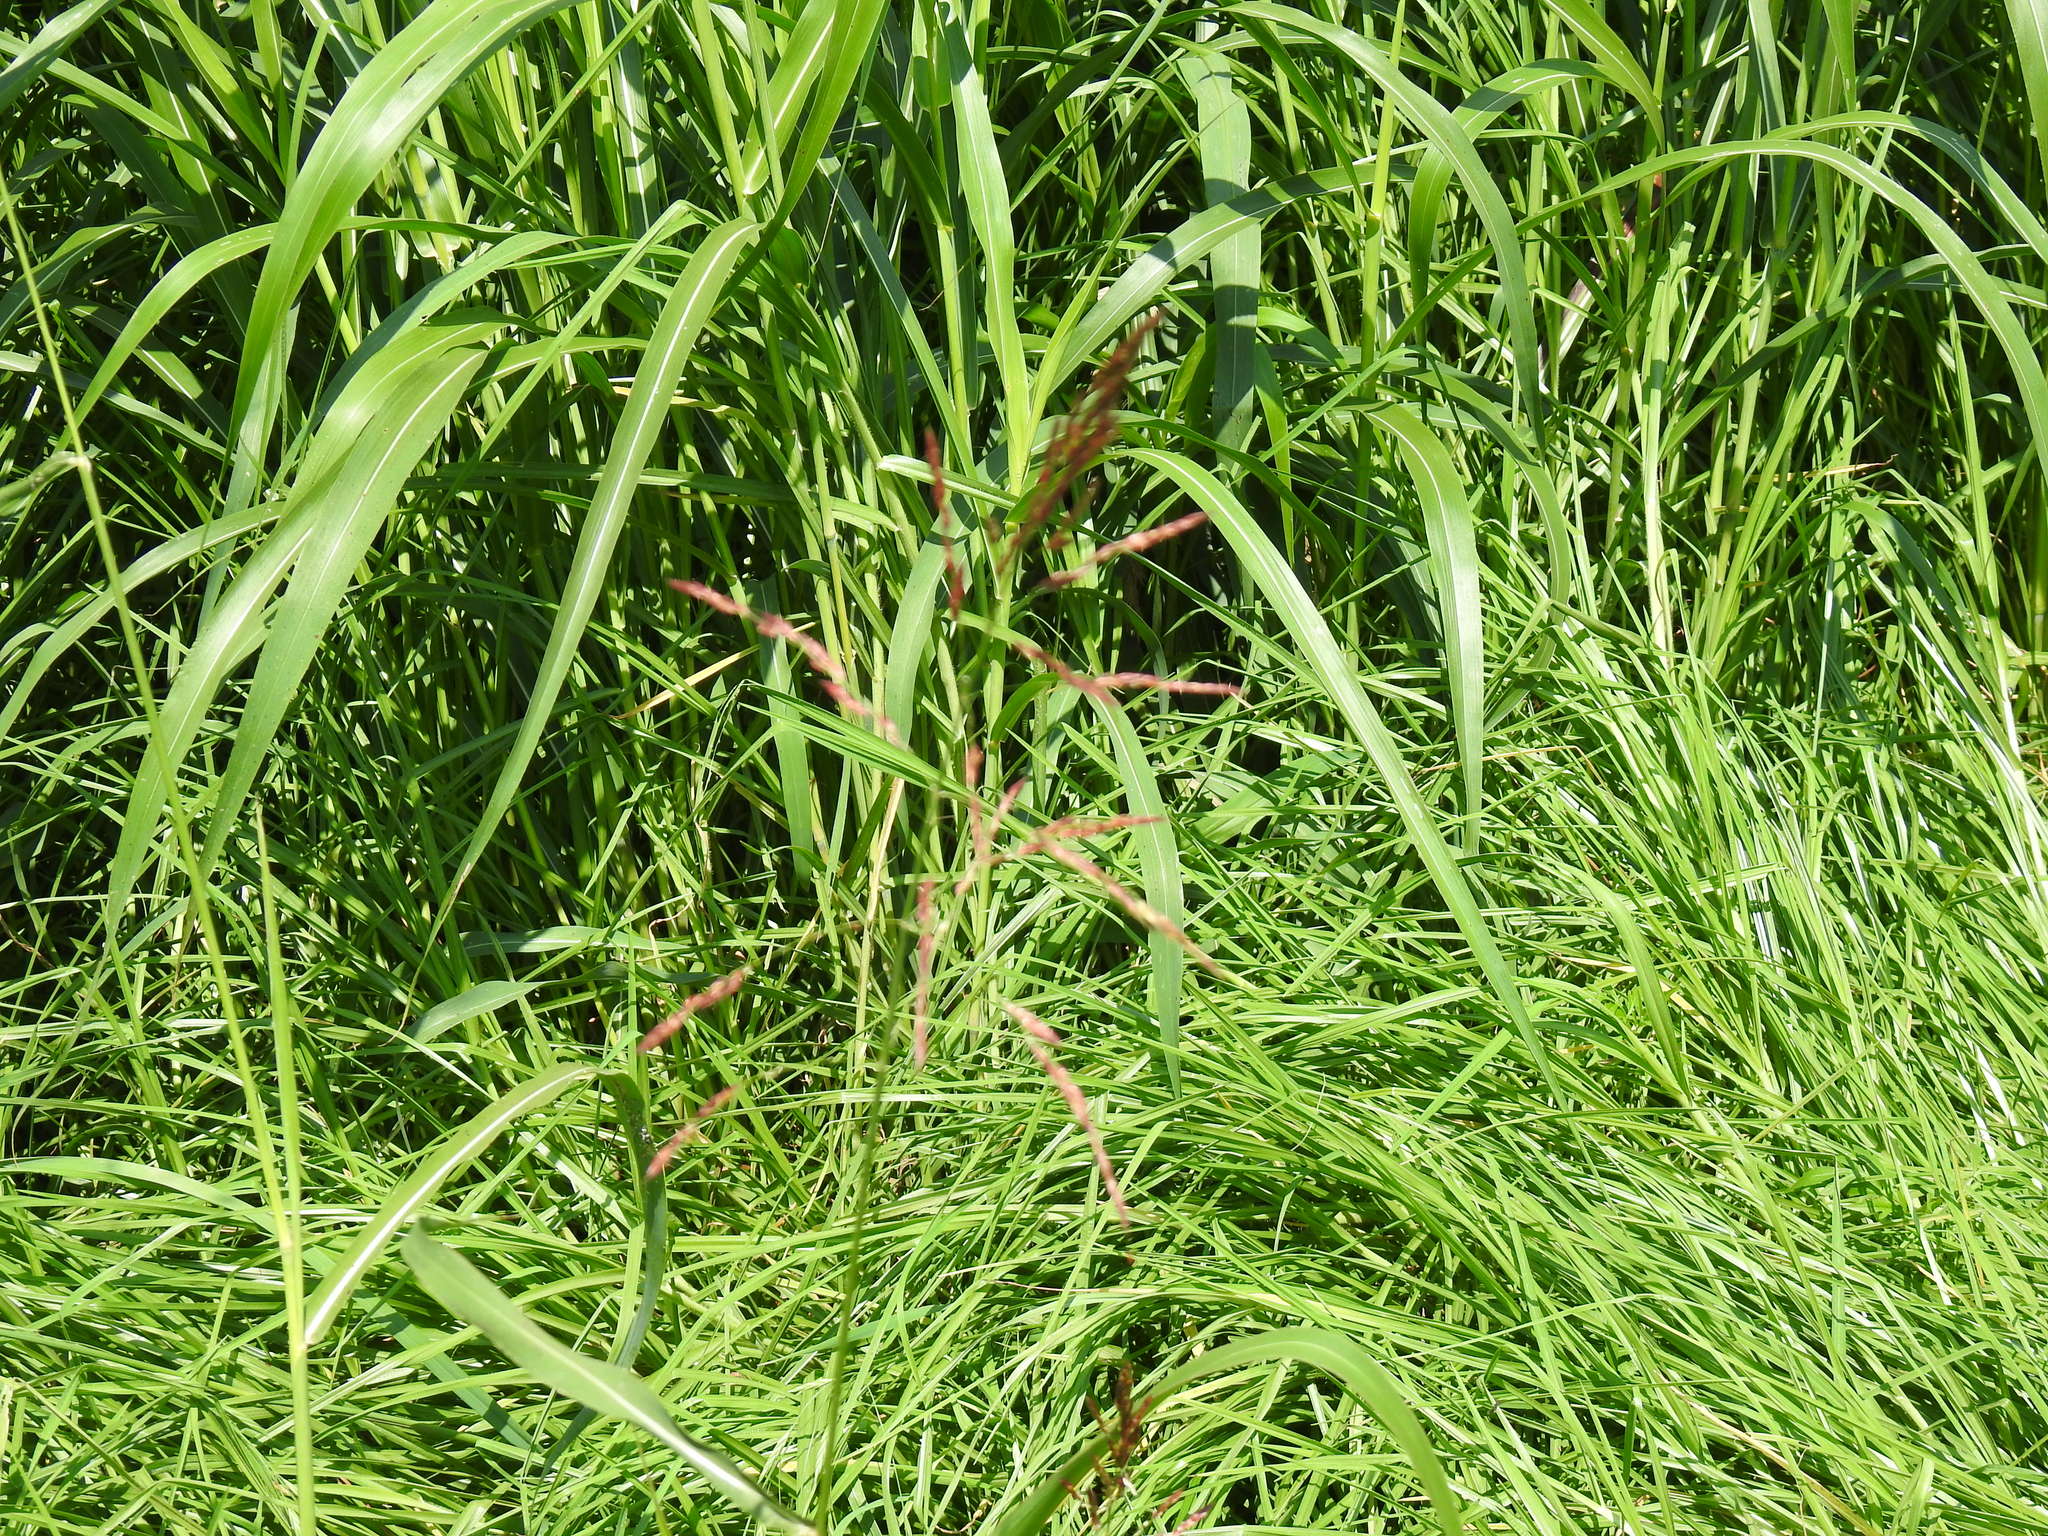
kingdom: Plantae
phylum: Tracheophyta
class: Liliopsida
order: Poales
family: Poaceae
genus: Sorghum
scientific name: Sorghum halepense
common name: Johnson-grass
